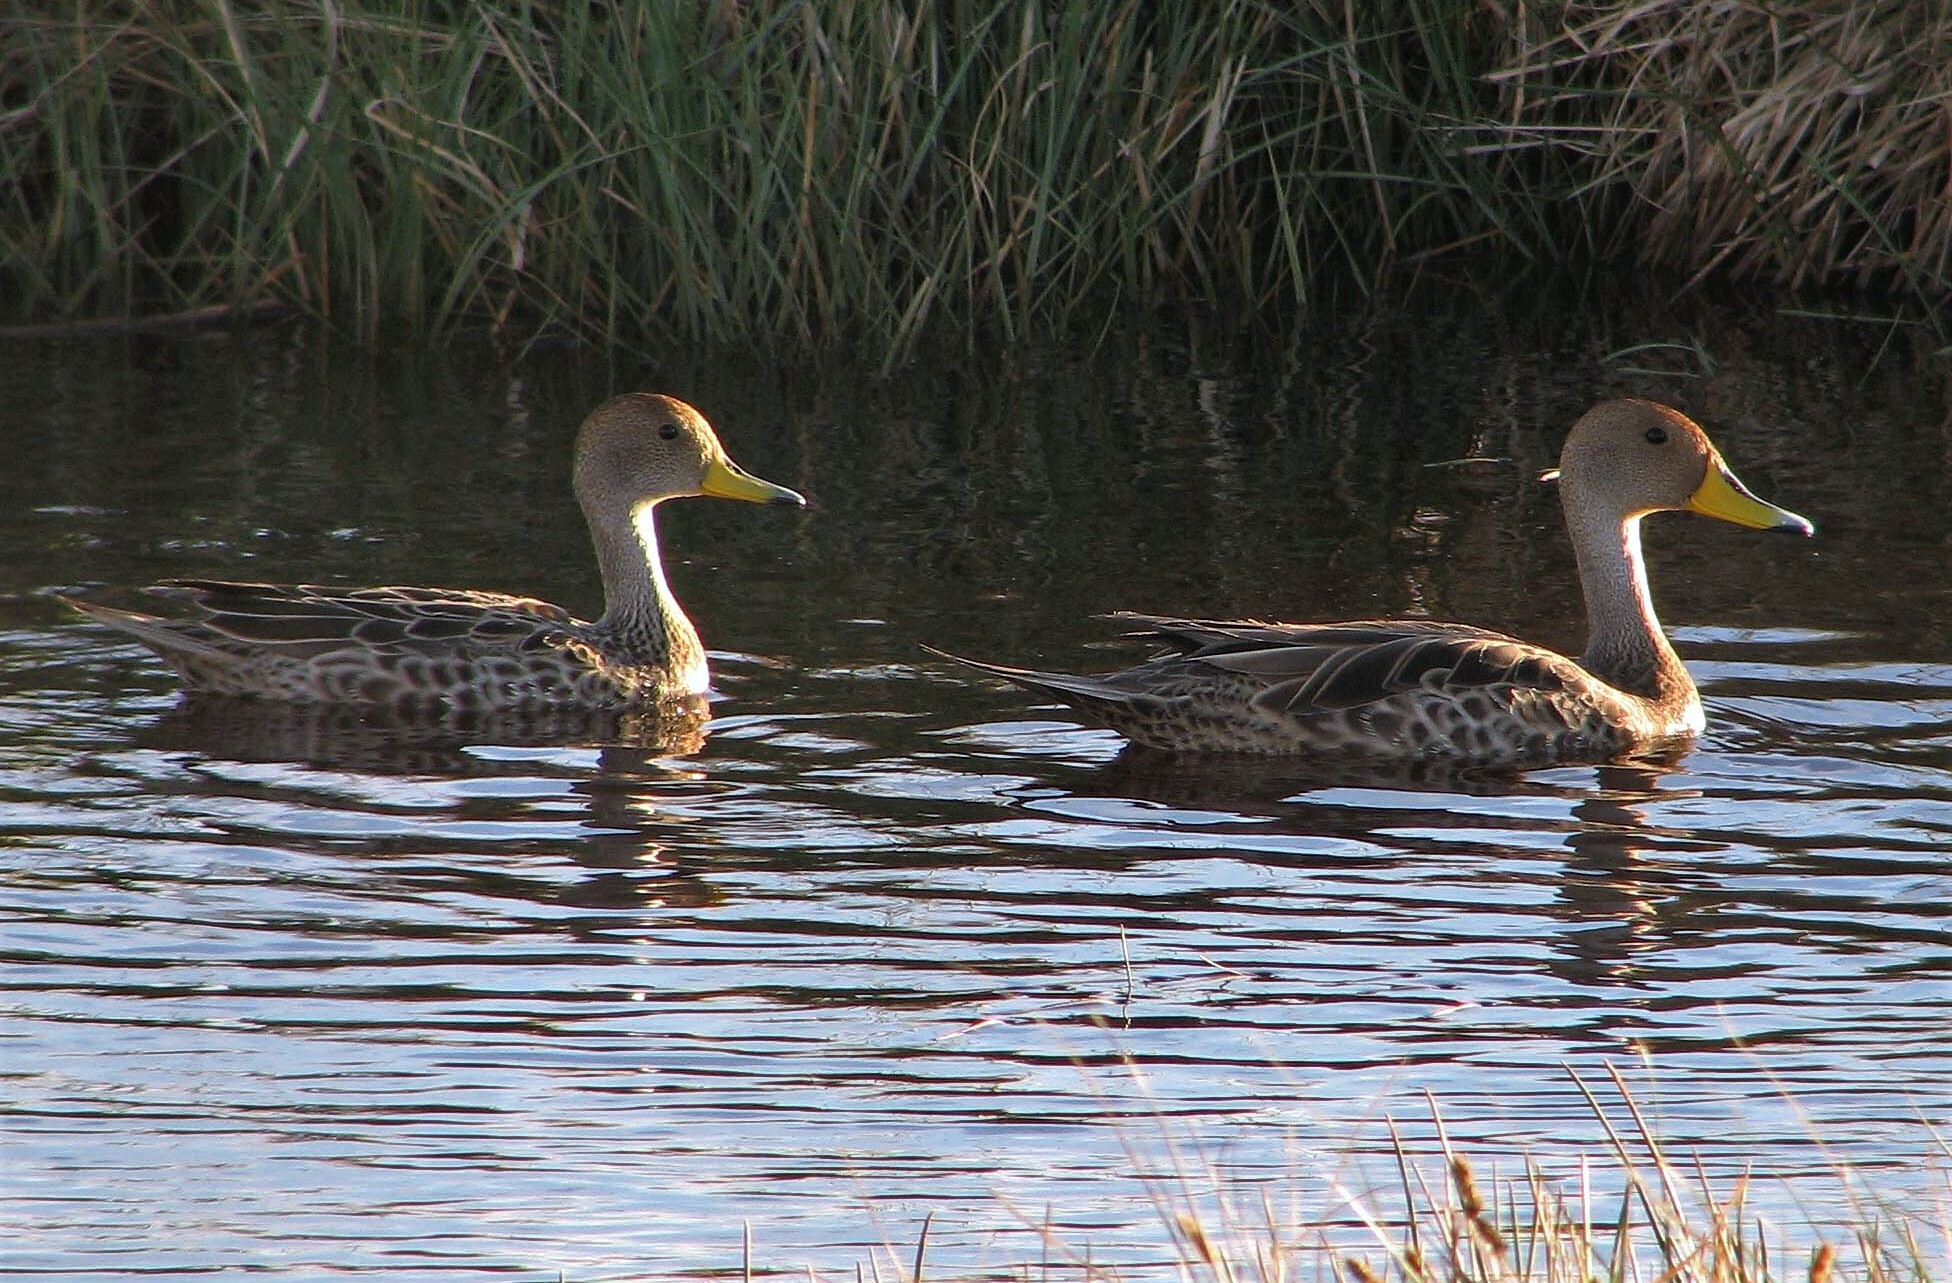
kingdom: Animalia
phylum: Chordata
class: Aves
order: Anseriformes
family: Anatidae
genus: Anas
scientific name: Anas georgica
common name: Yellow-billed pintail
